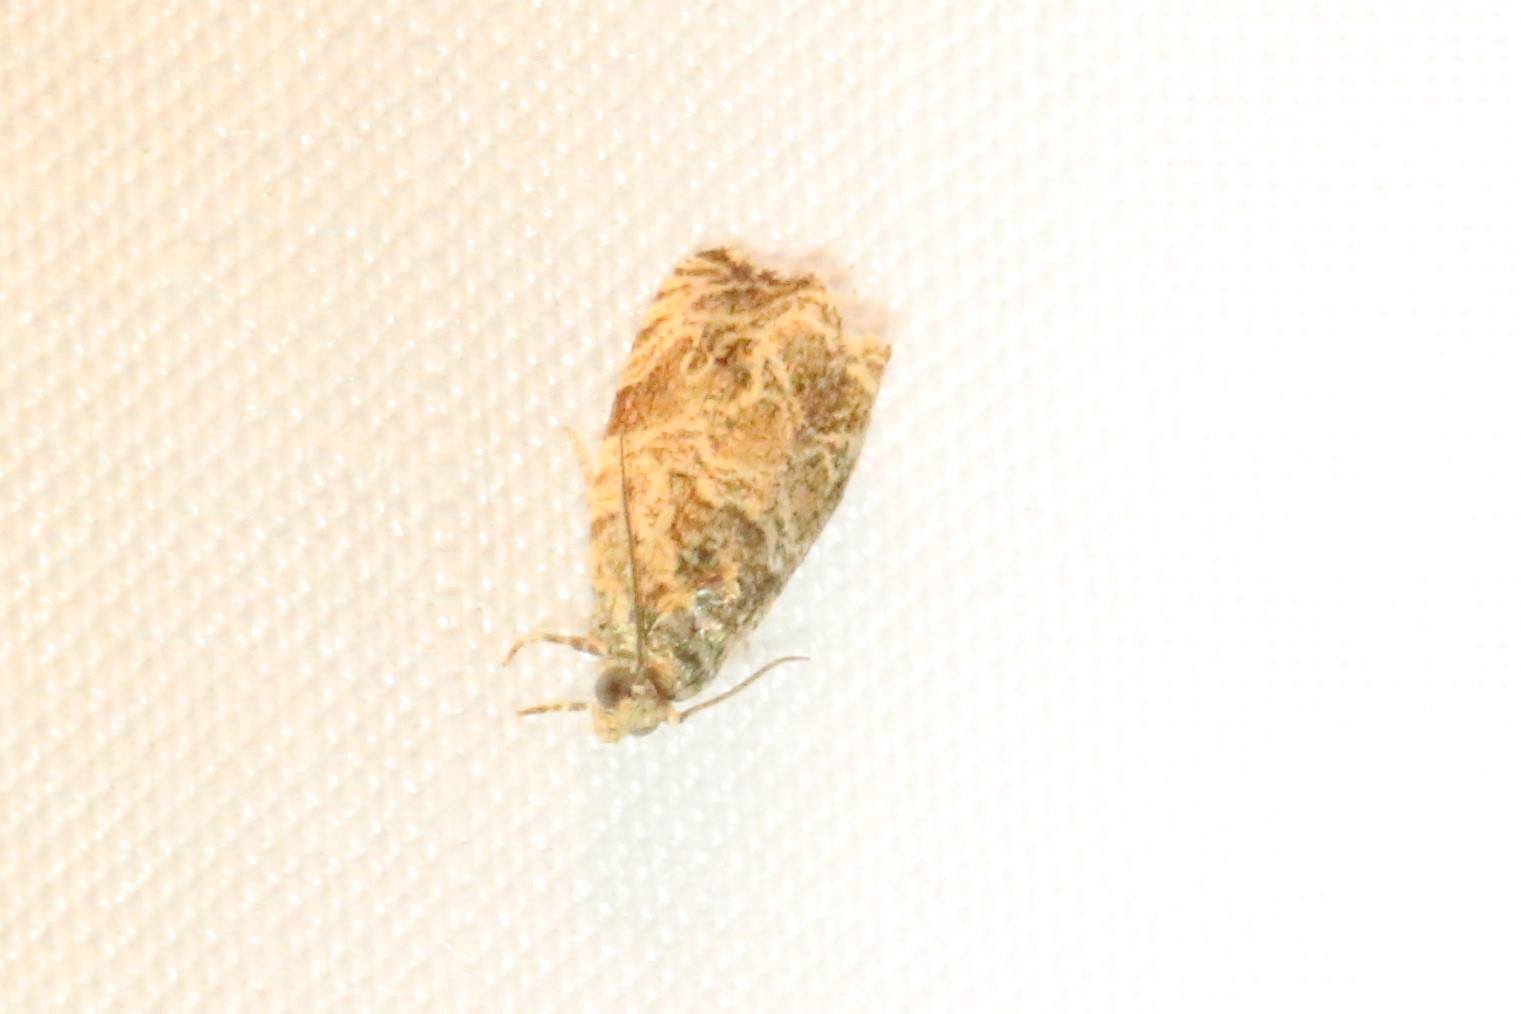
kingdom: Animalia
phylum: Arthropoda
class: Insecta
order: Lepidoptera
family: Tortricidae
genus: Celypha
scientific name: Celypha cespitana
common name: Thyme marble
